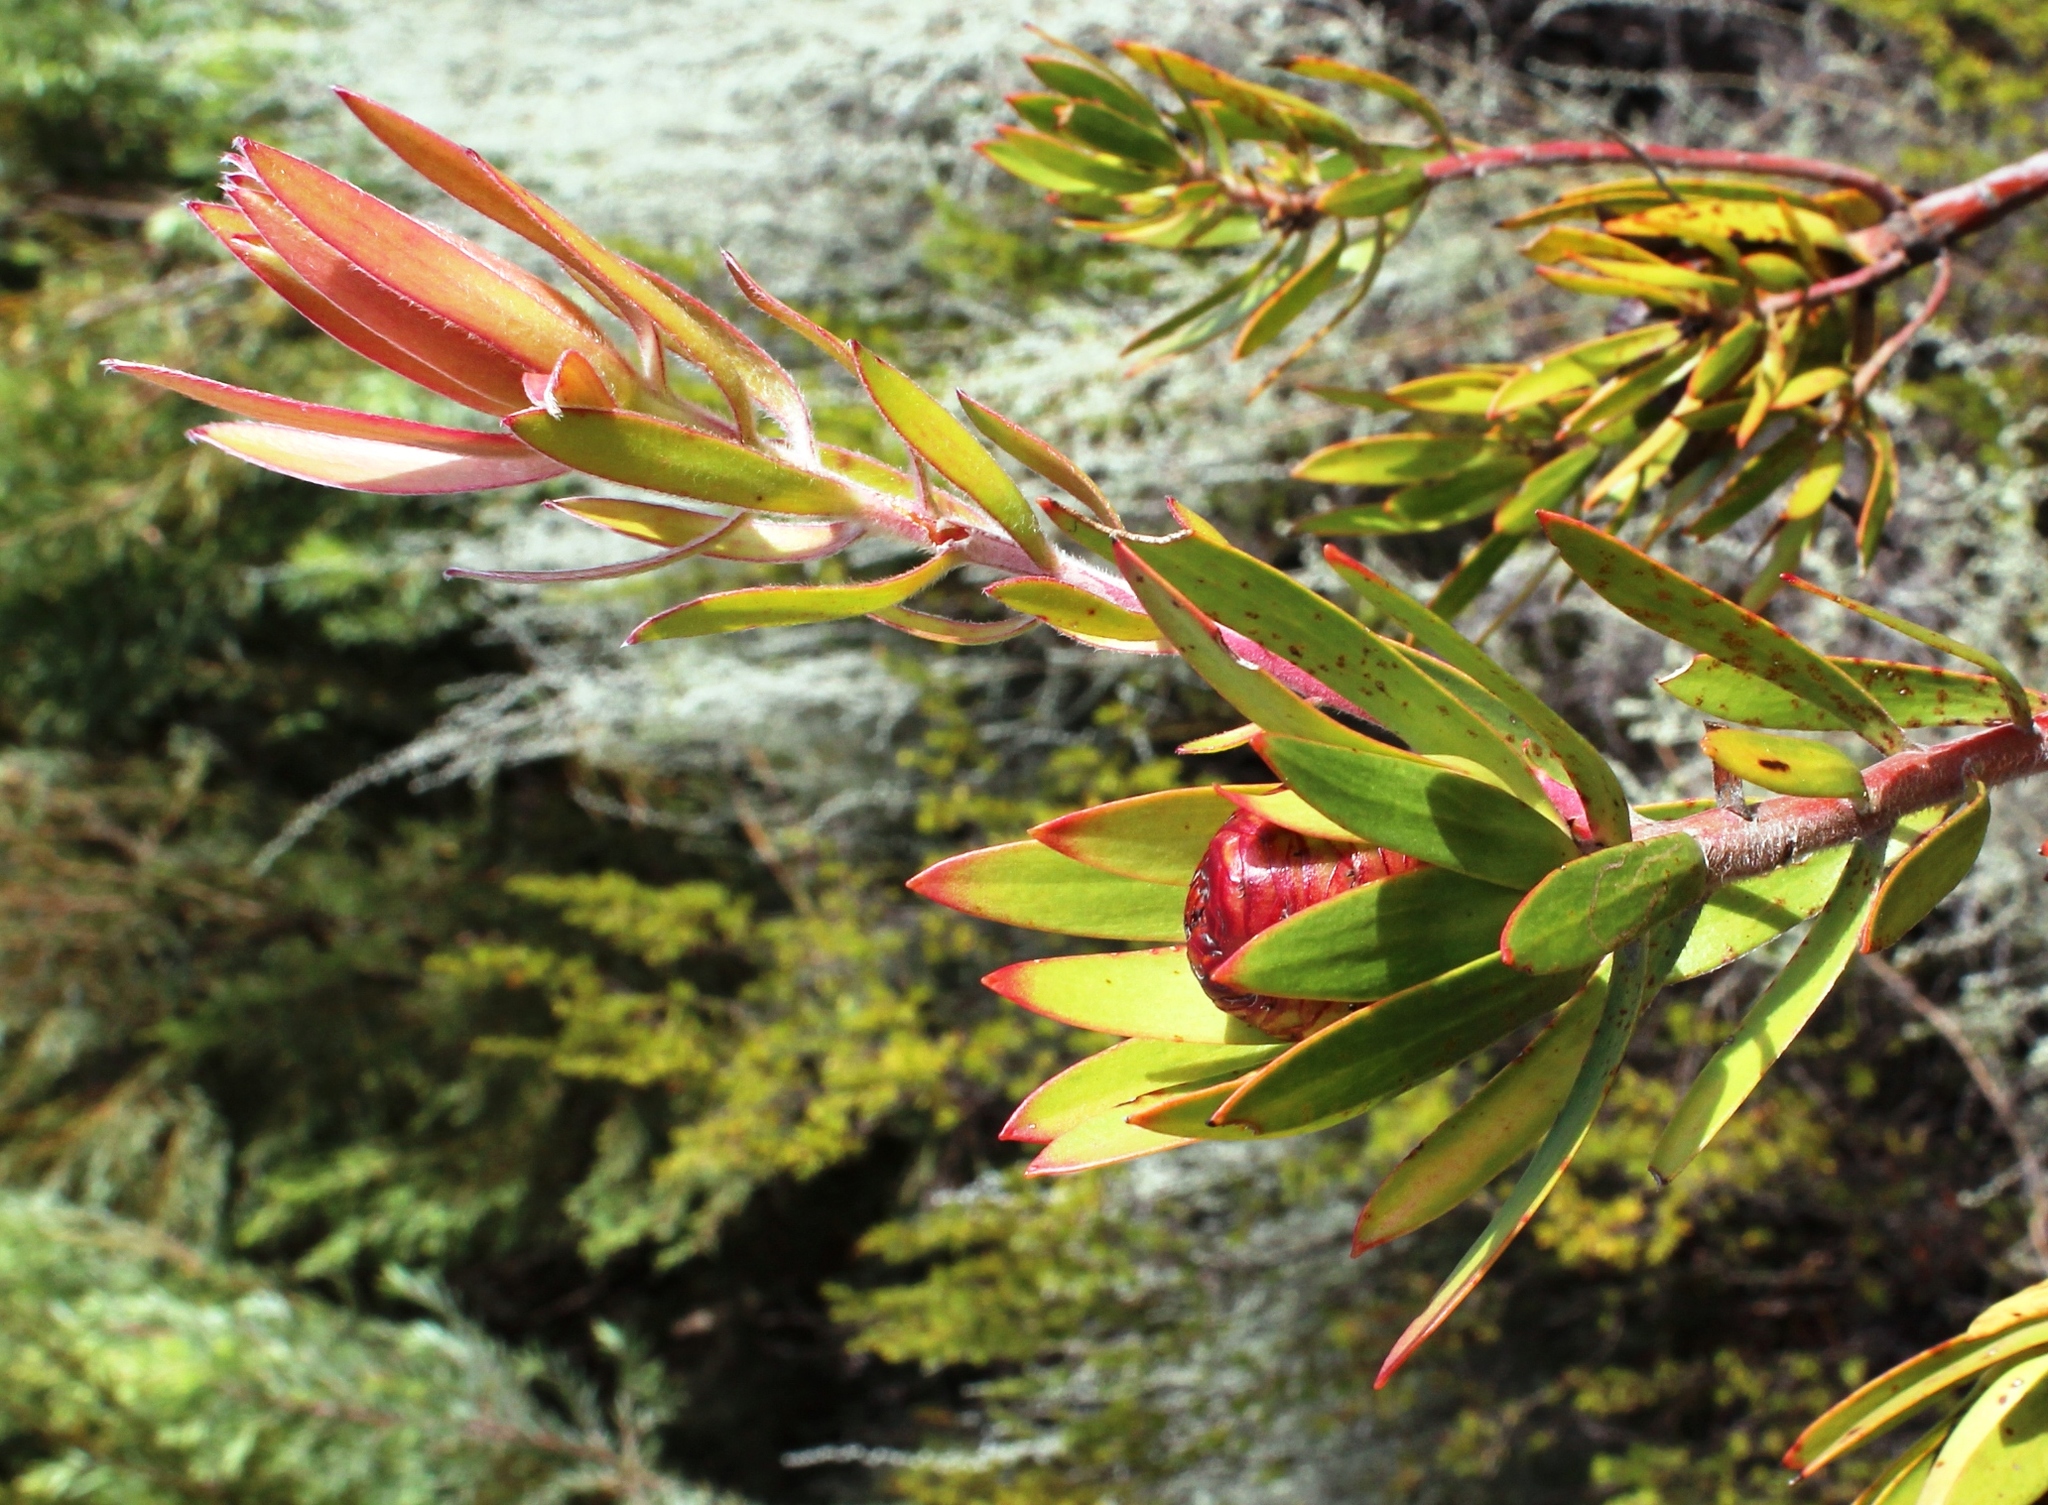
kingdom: Plantae
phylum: Tracheophyta
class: Magnoliopsida
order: Proteales
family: Proteaceae
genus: Leucadendron
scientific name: Leucadendron spissifolium
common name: Spear-leaf conebush
